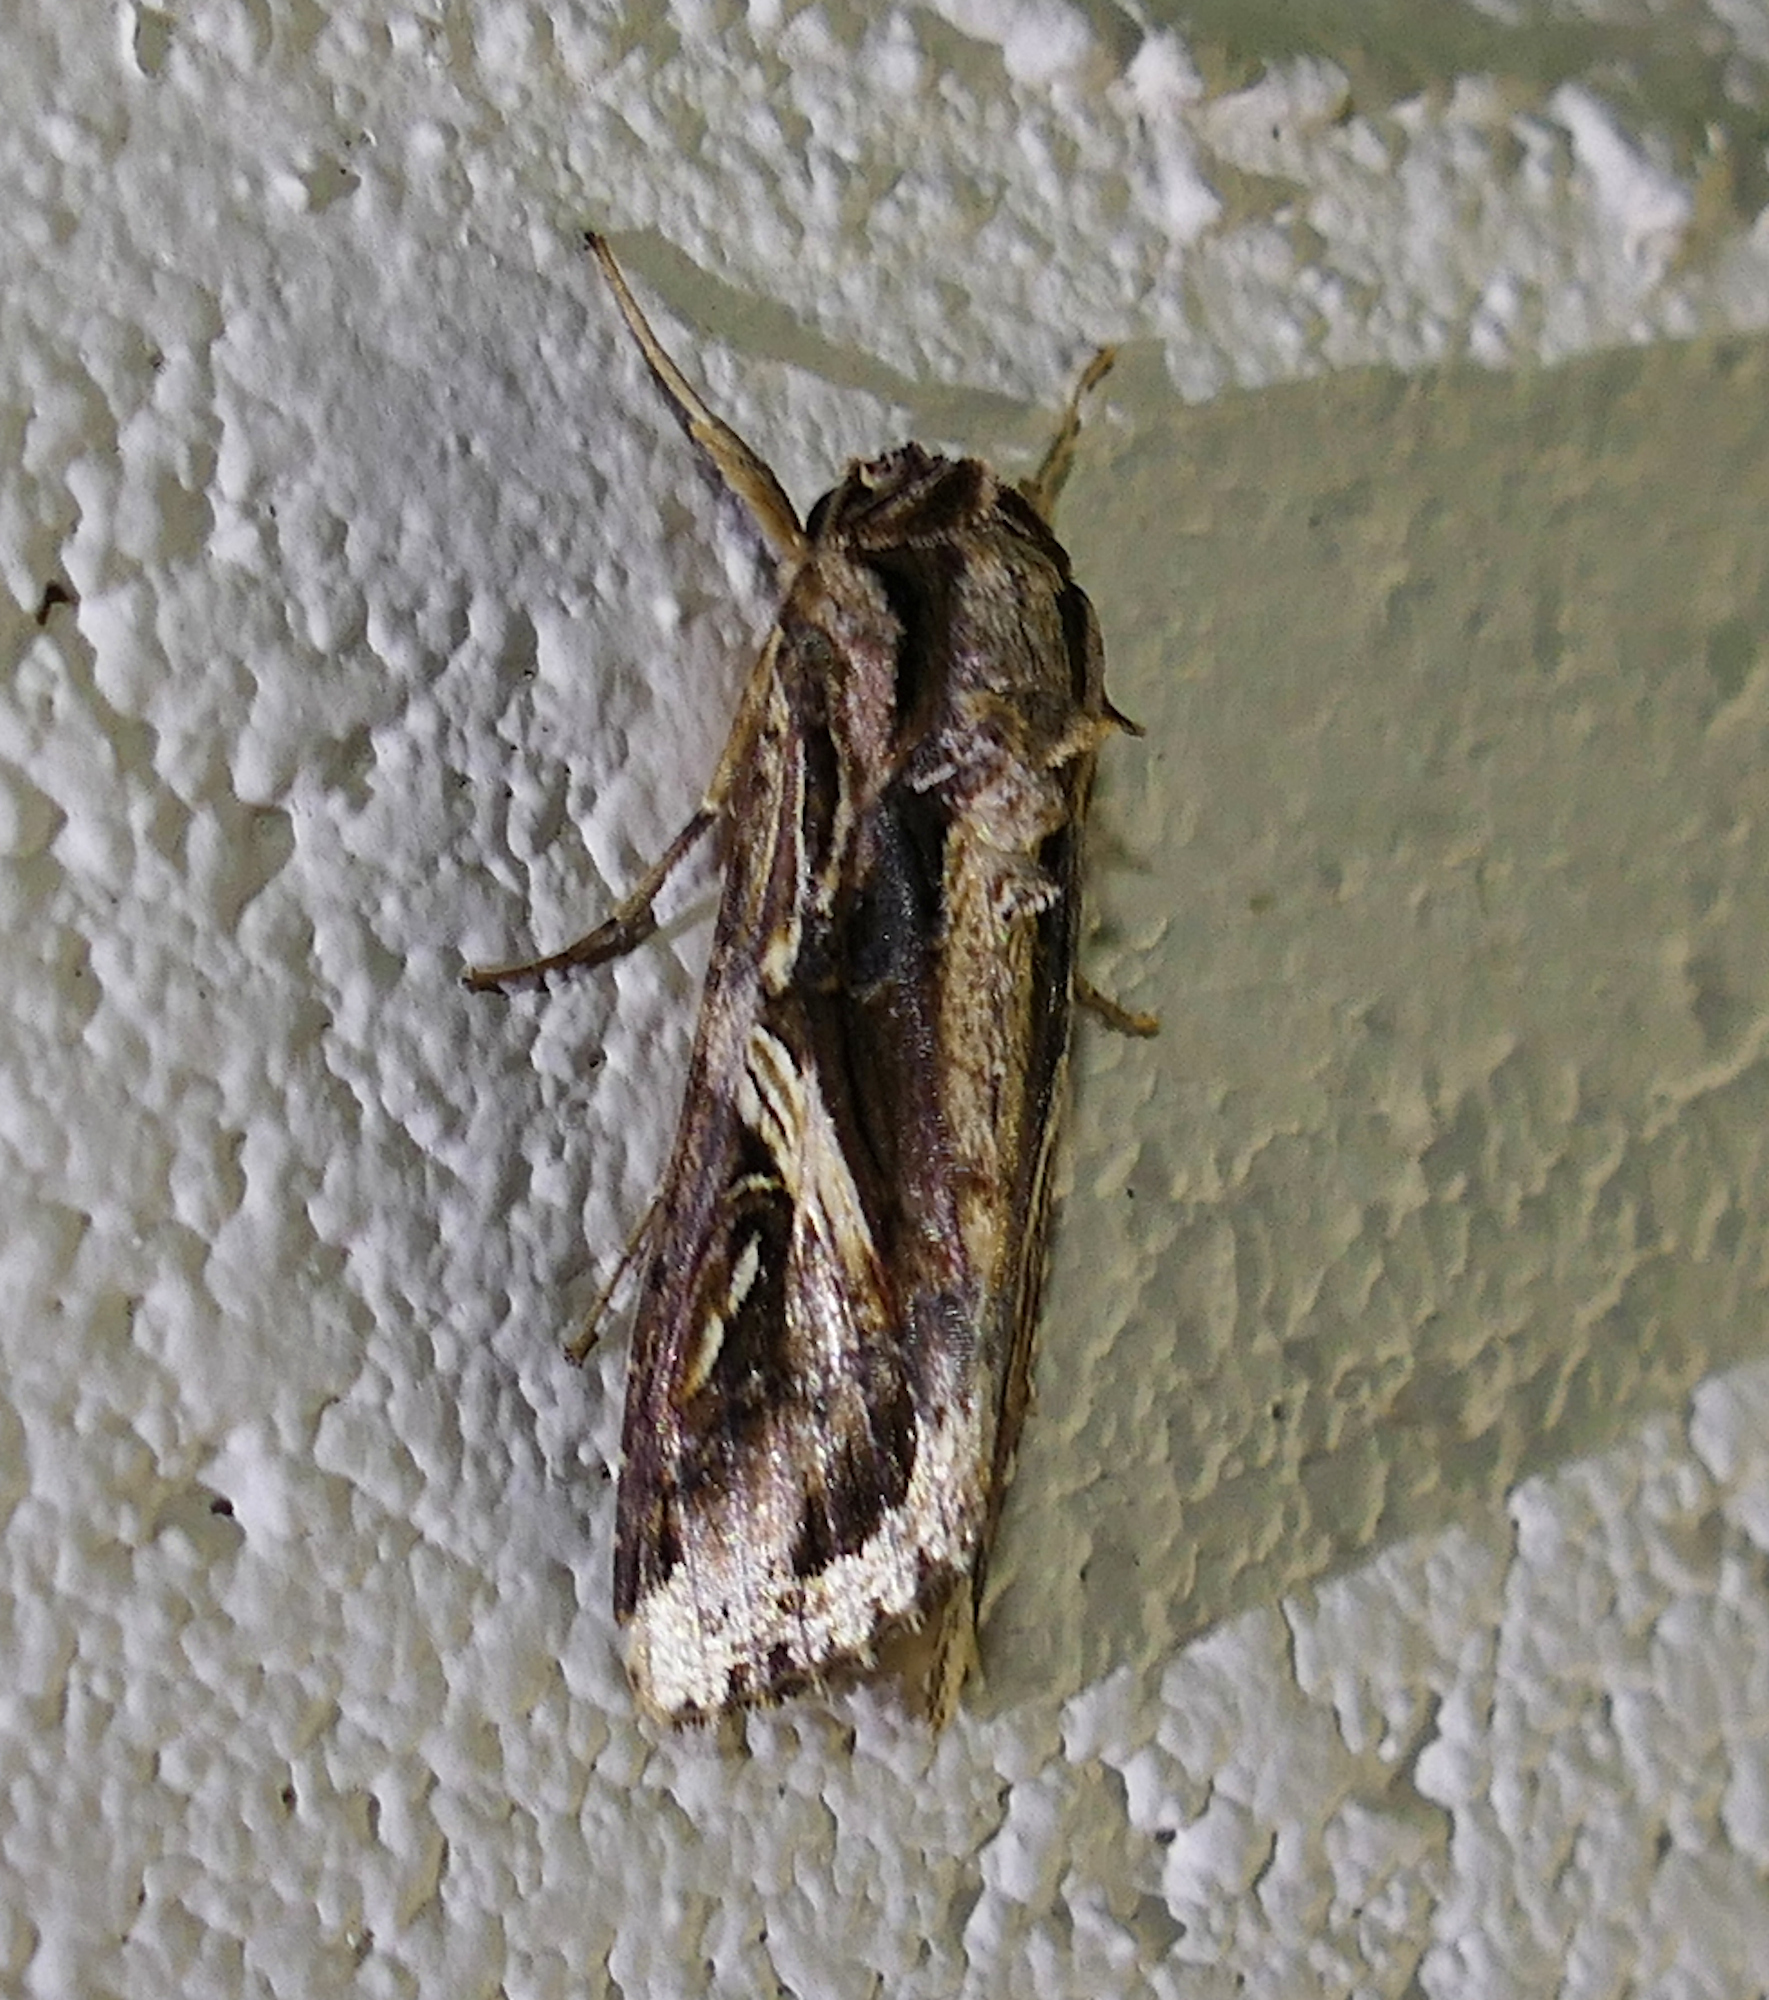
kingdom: Animalia
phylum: Arthropoda
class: Insecta
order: Lepidoptera
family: Noctuidae
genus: Spodoptera
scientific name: Spodoptera dolichos
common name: Sweetpotato armyworm
